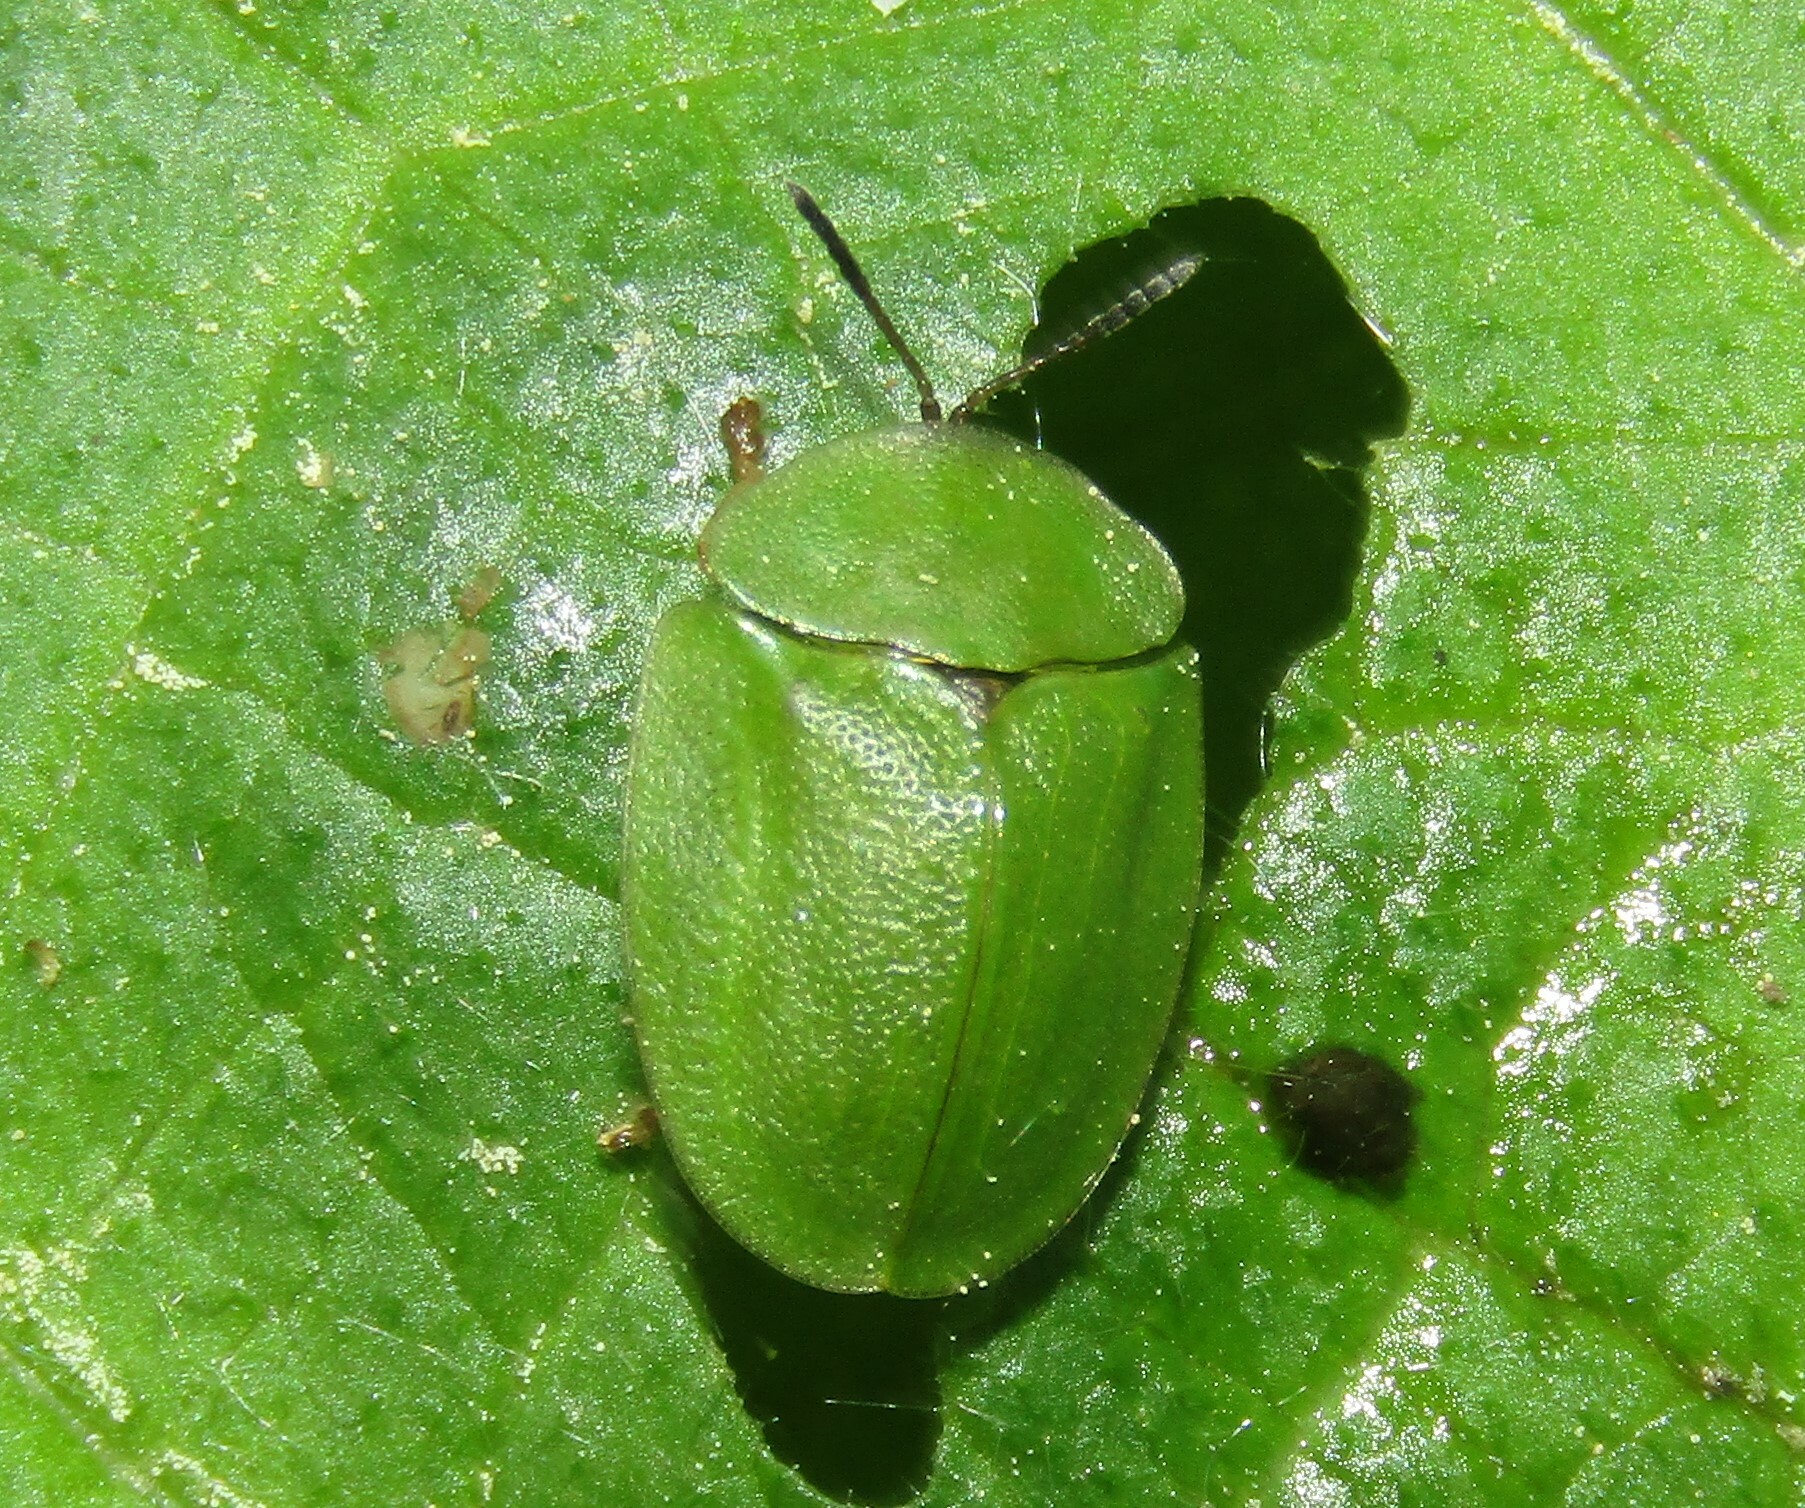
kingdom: Animalia
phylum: Arthropoda
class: Insecta
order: Coleoptera
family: Chrysomelidae
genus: Cassida
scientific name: Cassida viridis
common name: Green tortoise beetle
